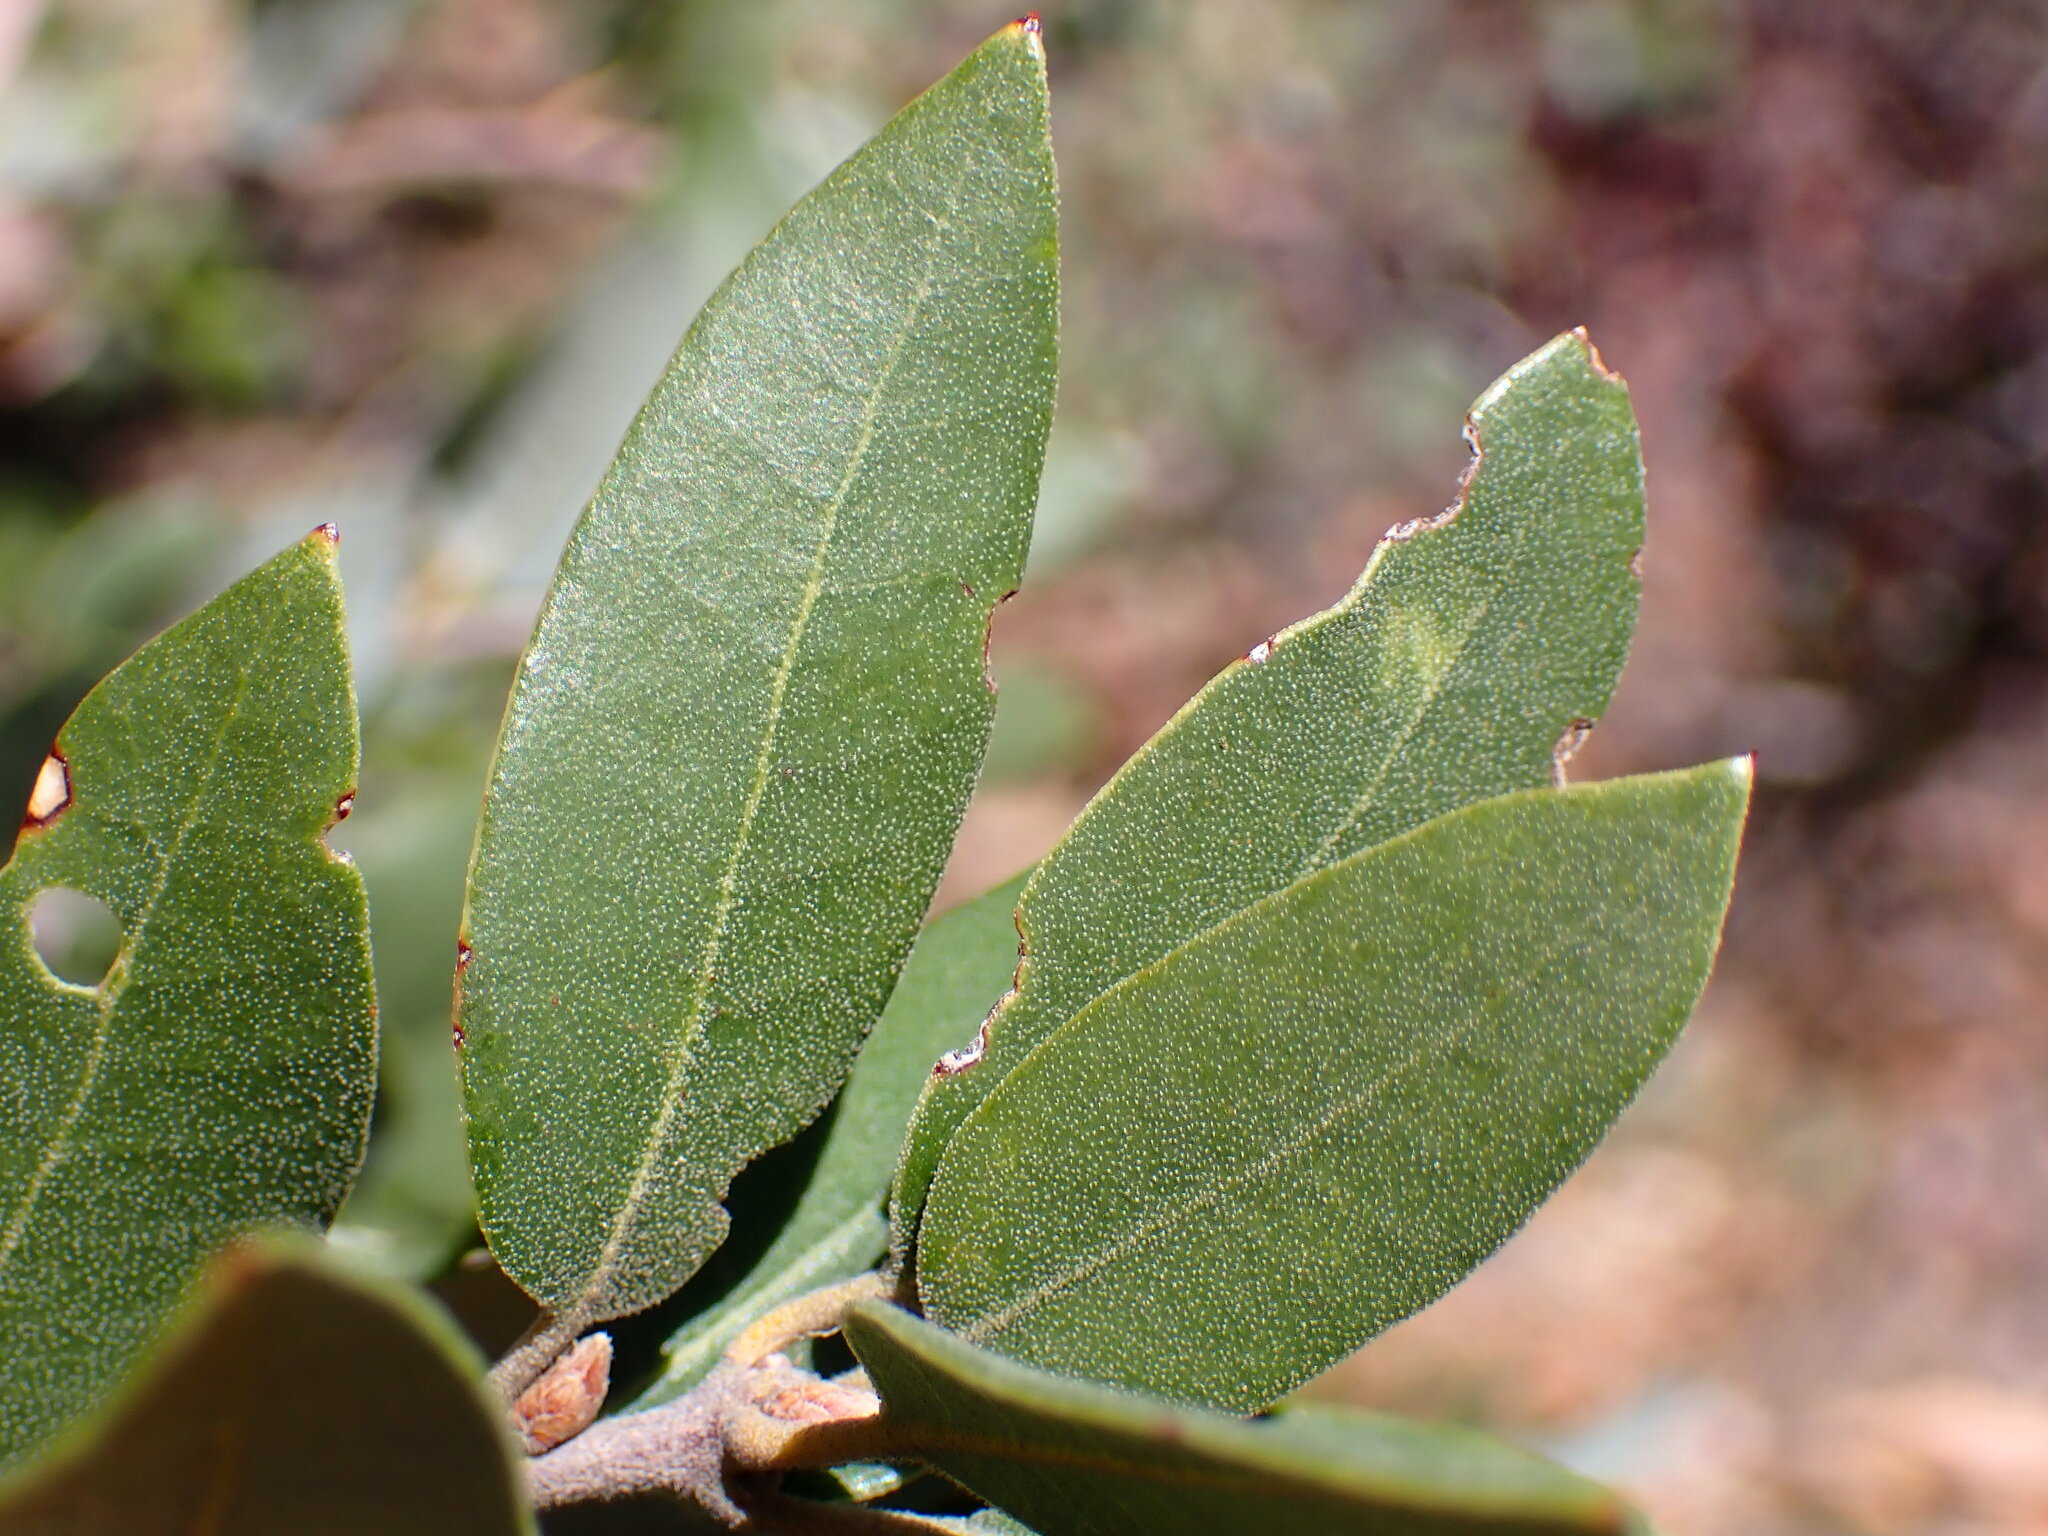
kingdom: Plantae
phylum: Tracheophyta
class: Magnoliopsida
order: Fagales
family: Fagaceae
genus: Quercus
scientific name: Quercus chrysolepis
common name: Canyon live oak
